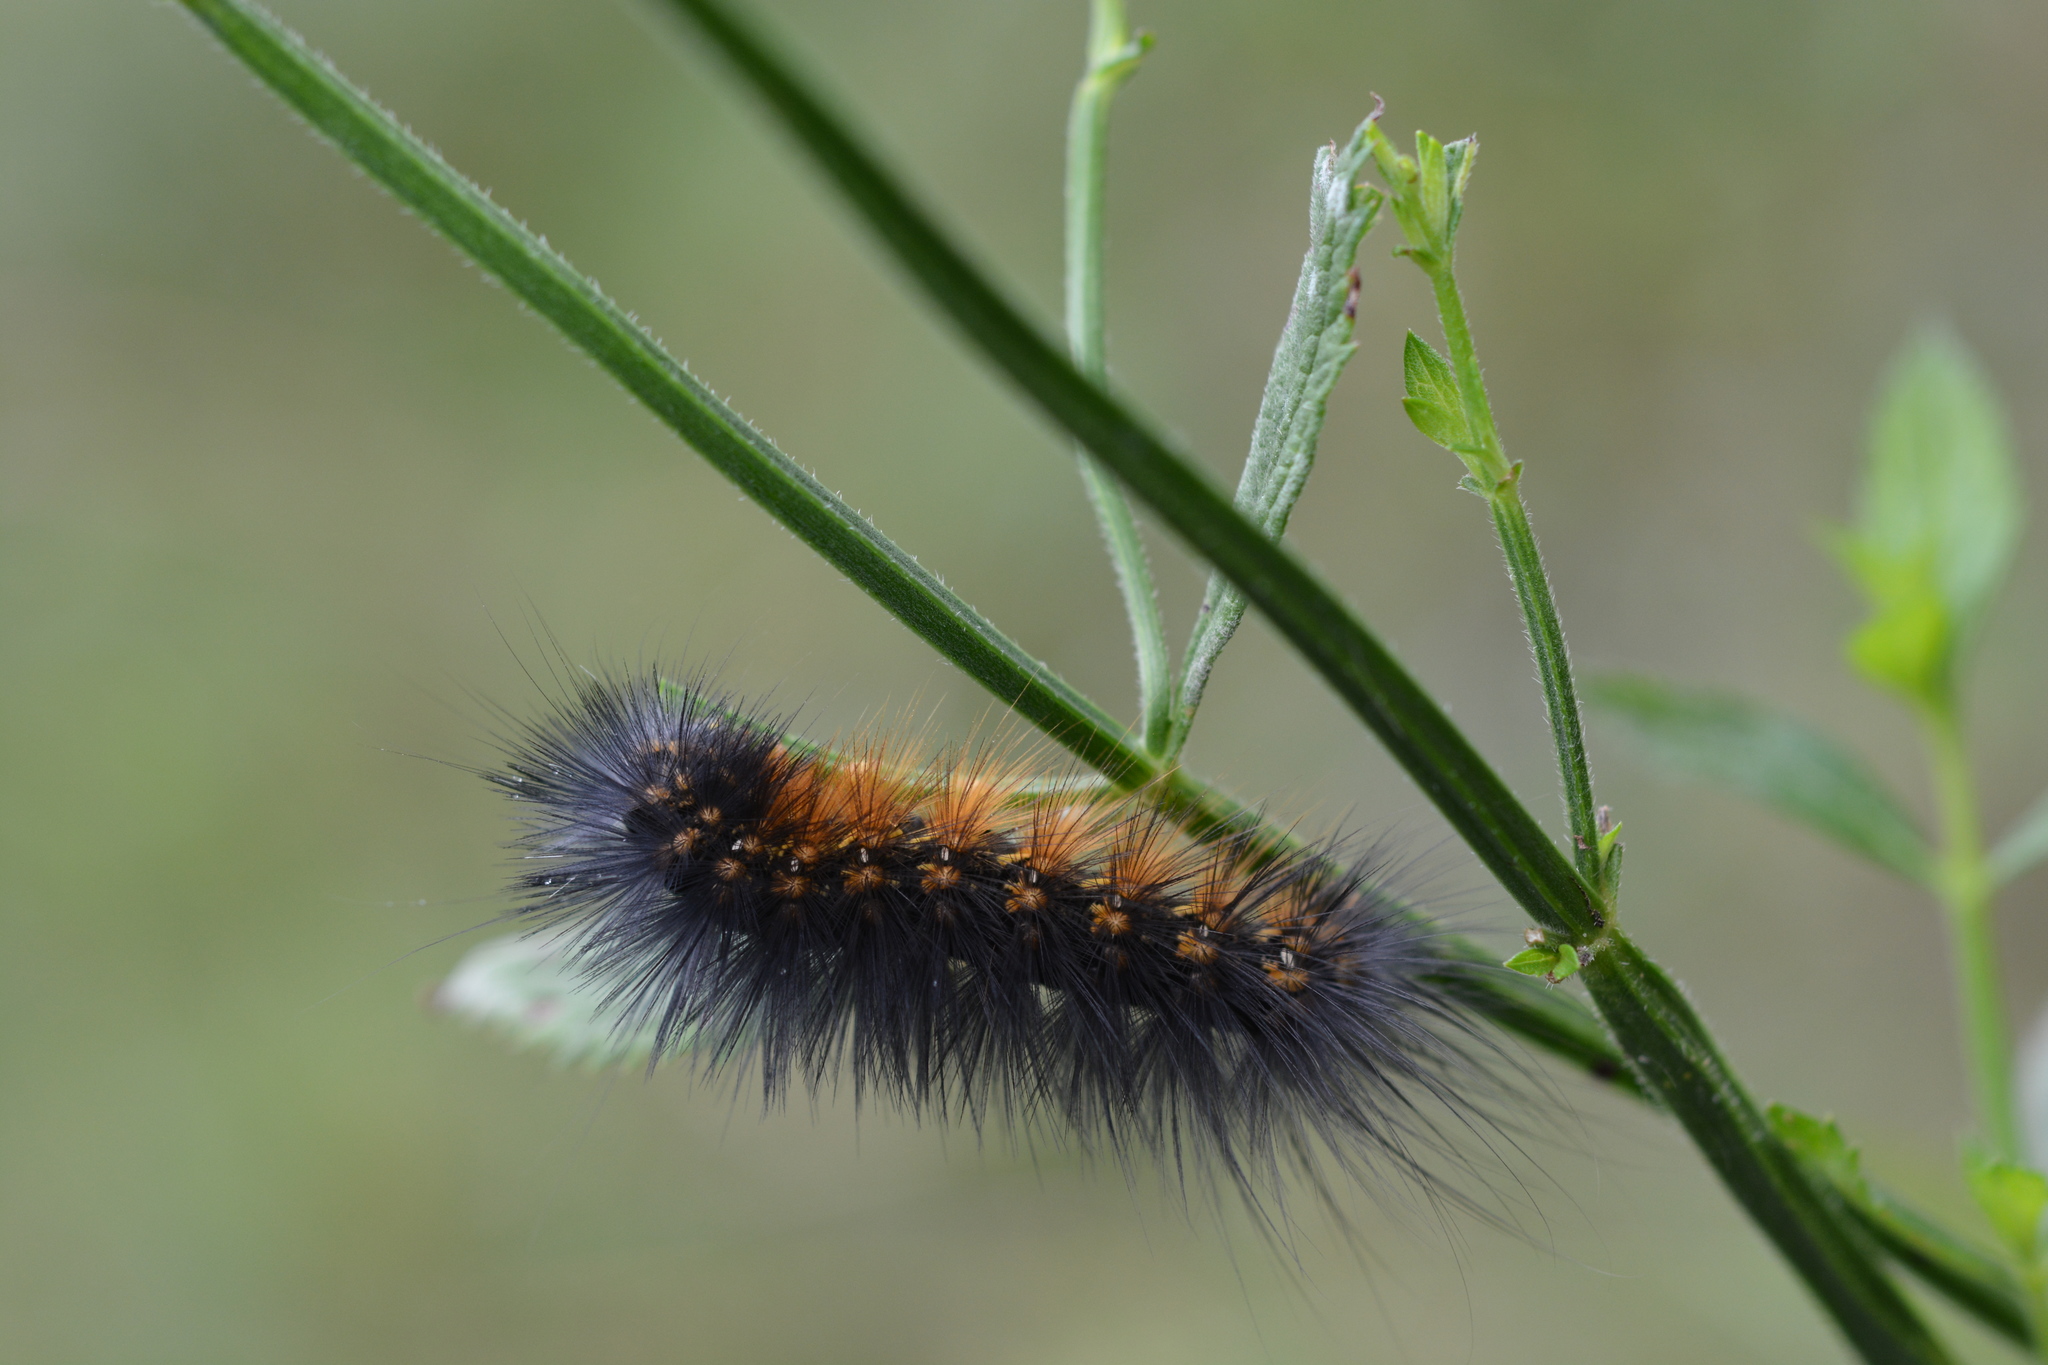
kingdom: Animalia
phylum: Arthropoda
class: Insecta
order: Lepidoptera
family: Erebidae
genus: Estigmene
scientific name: Estigmene acrea
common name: Salt marsh moth
